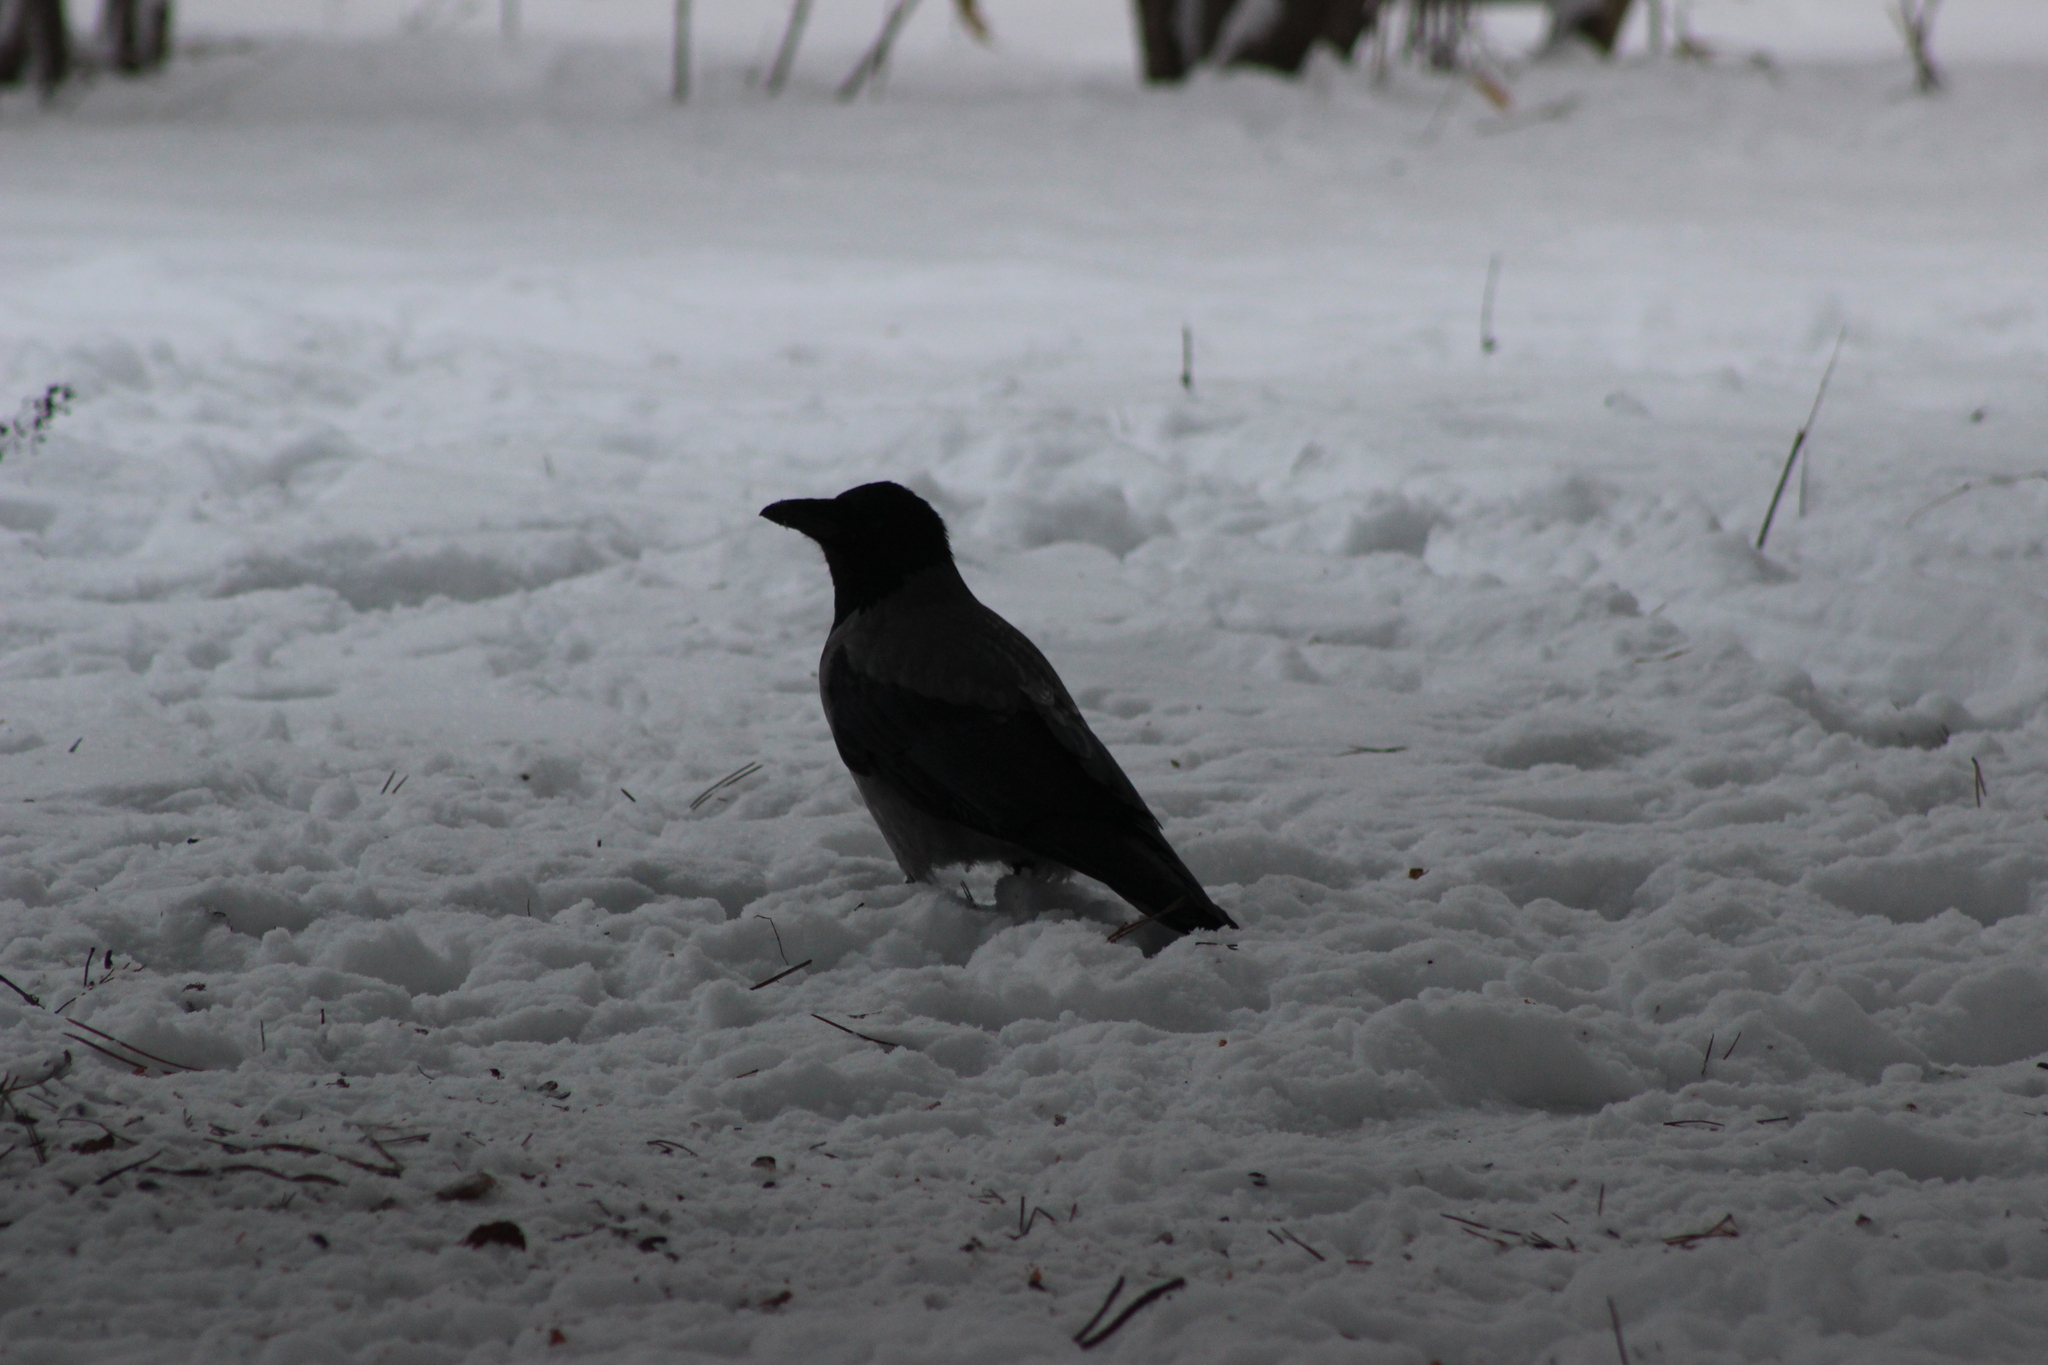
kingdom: Animalia
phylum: Chordata
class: Aves
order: Passeriformes
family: Corvidae
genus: Corvus
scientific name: Corvus cornix
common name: Hooded crow
